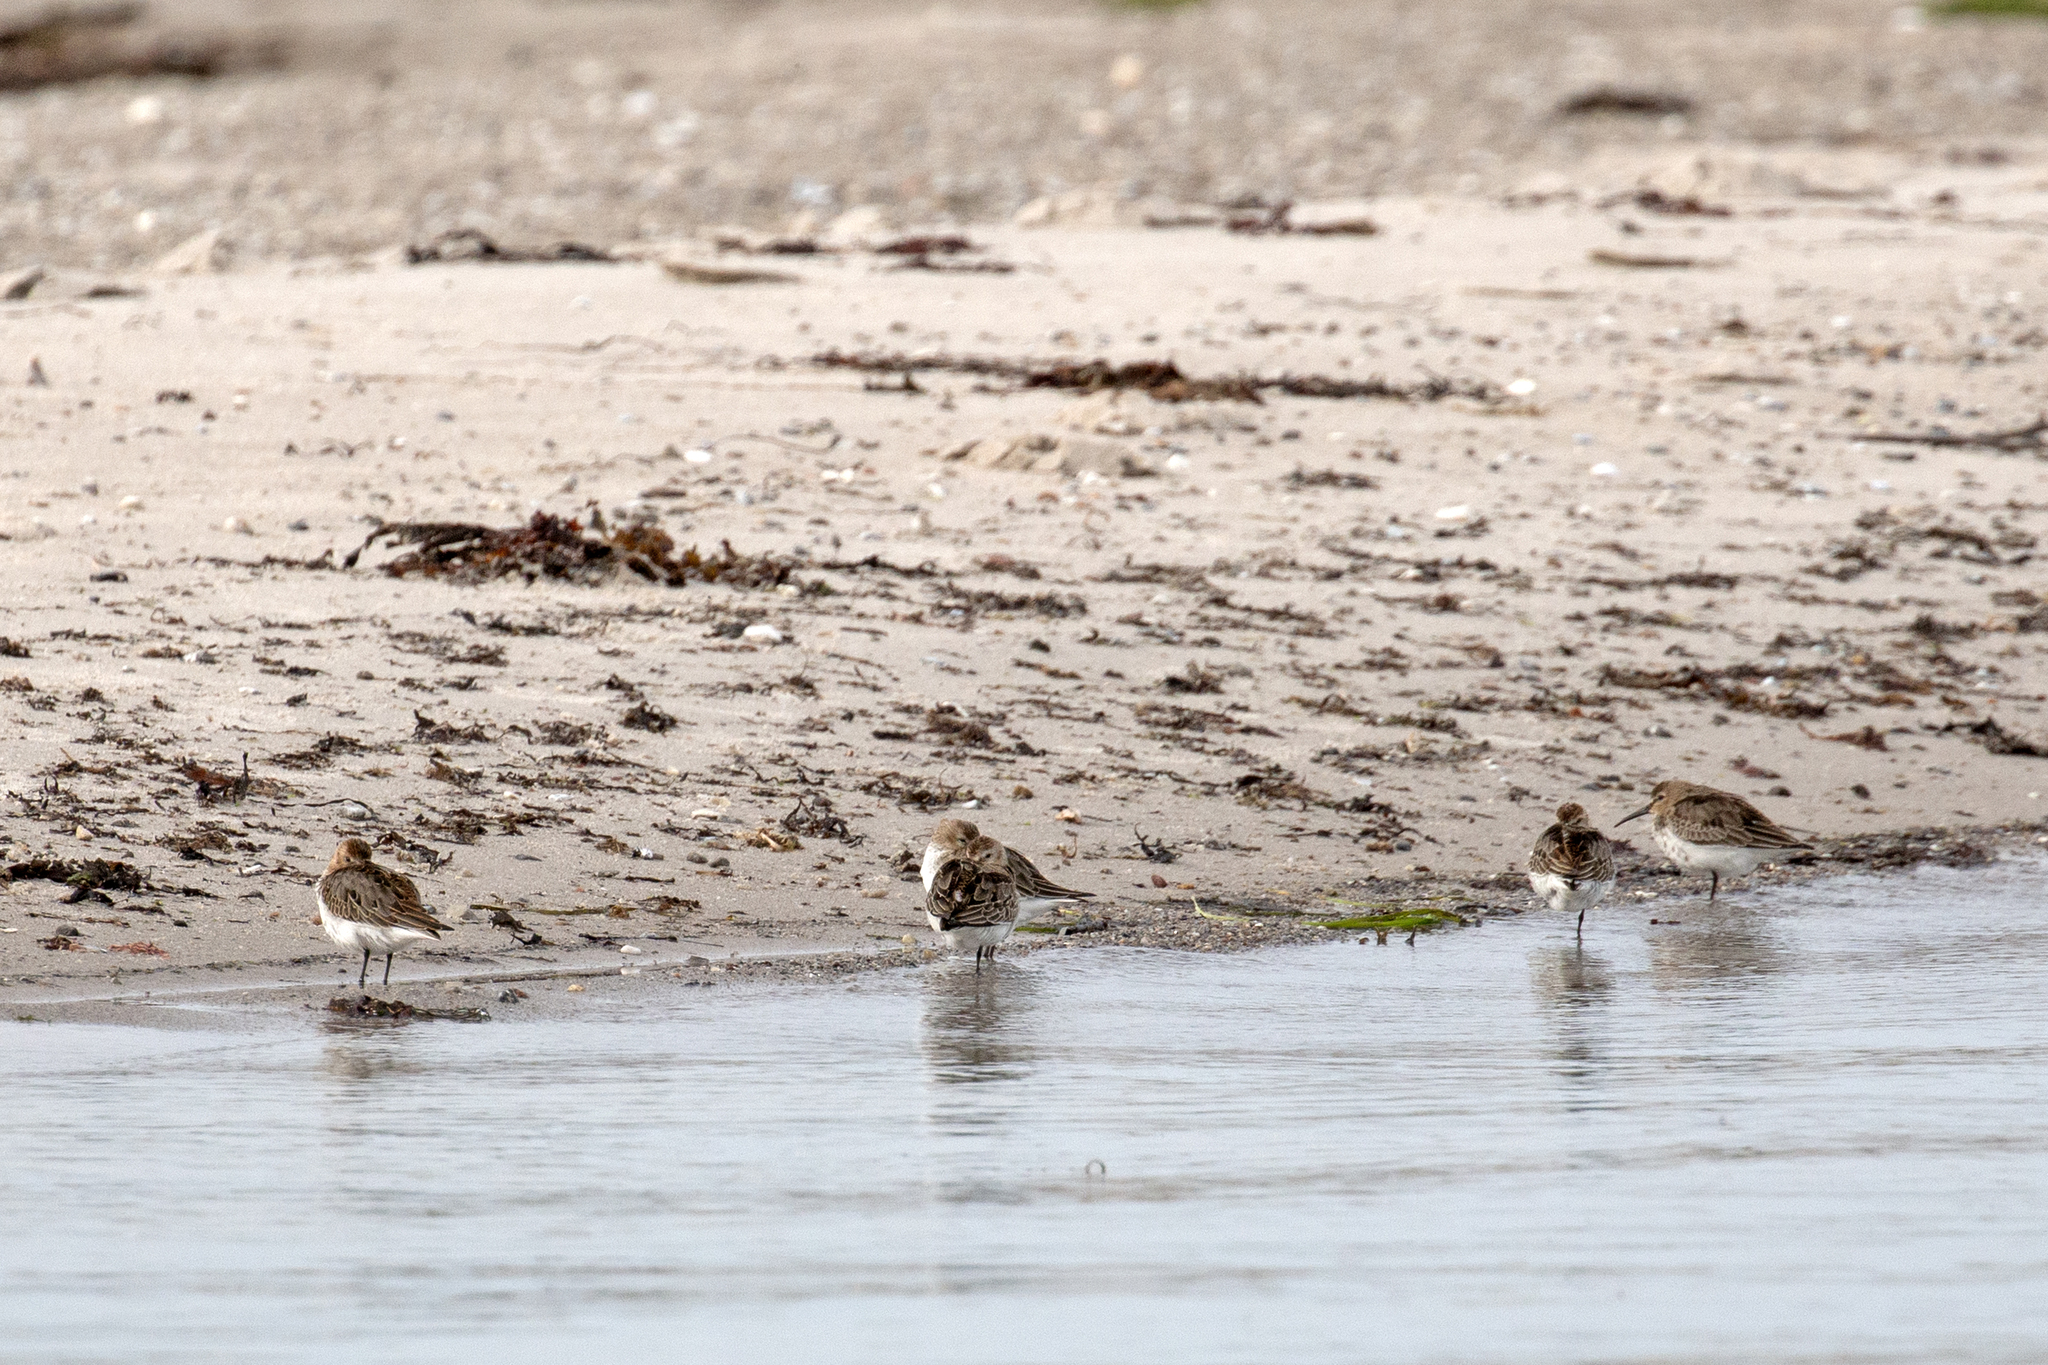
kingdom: Animalia
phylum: Chordata
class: Aves
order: Charadriiformes
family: Scolopacidae
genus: Calidris
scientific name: Calidris alpina
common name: Dunlin
